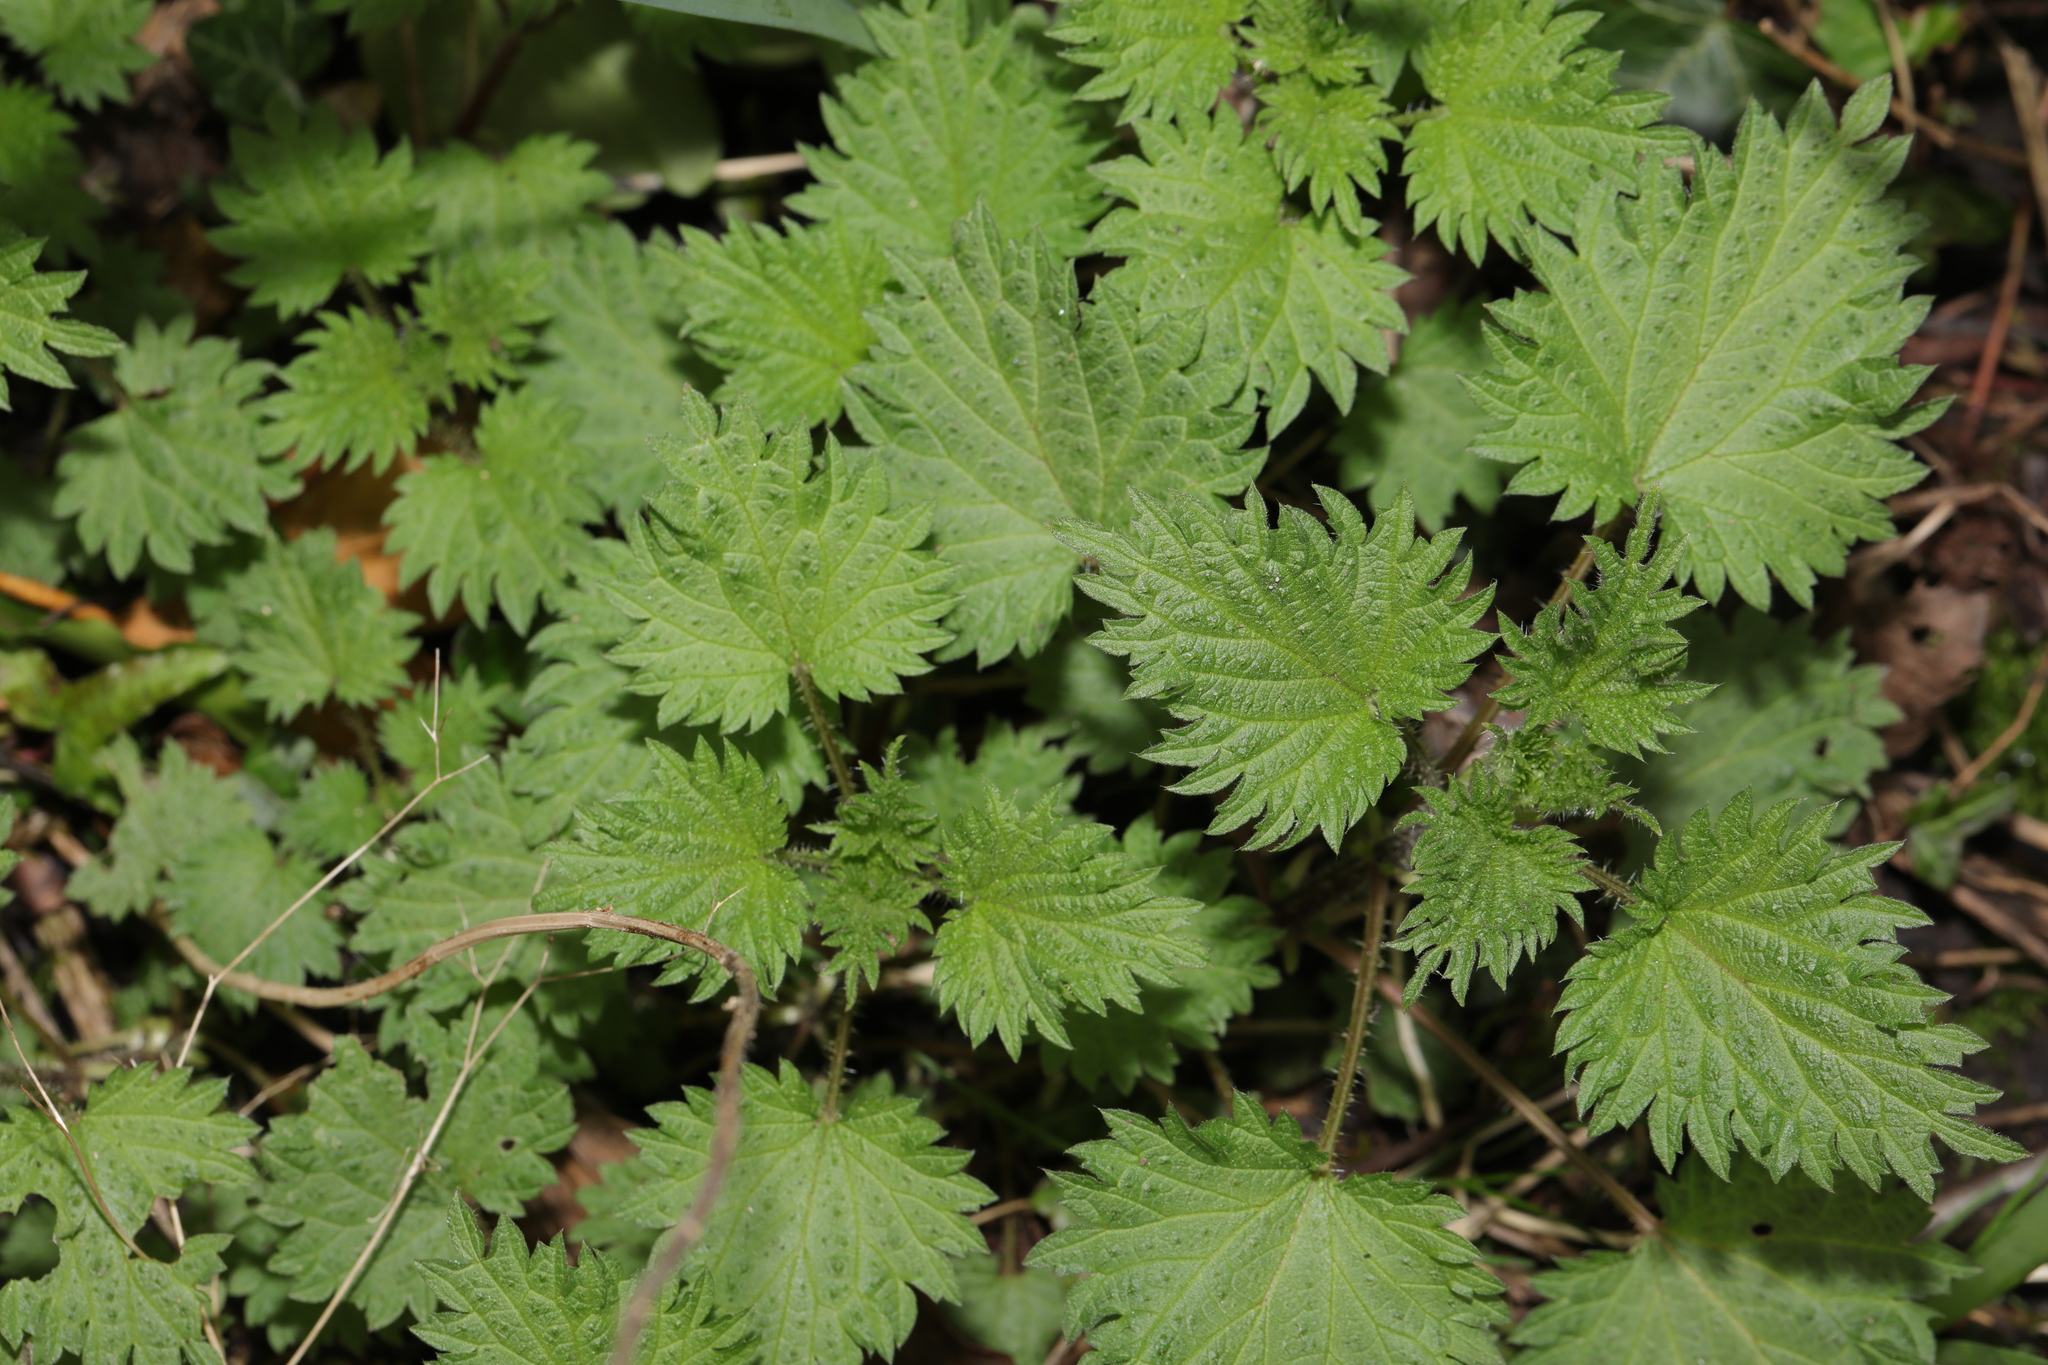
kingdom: Plantae
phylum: Tracheophyta
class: Magnoliopsida
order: Rosales
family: Urticaceae
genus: Urtica
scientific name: Urtica dioica
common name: Common nettle
